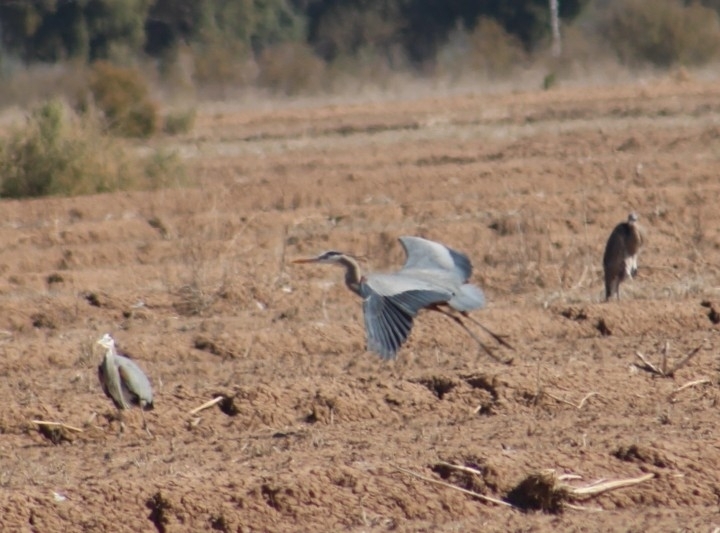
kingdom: Animalia
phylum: Chordata
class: Aves
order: Pelecaniformes
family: Ardeidae
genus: Ardea
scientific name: Ardea herodias
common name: Great blue heron
